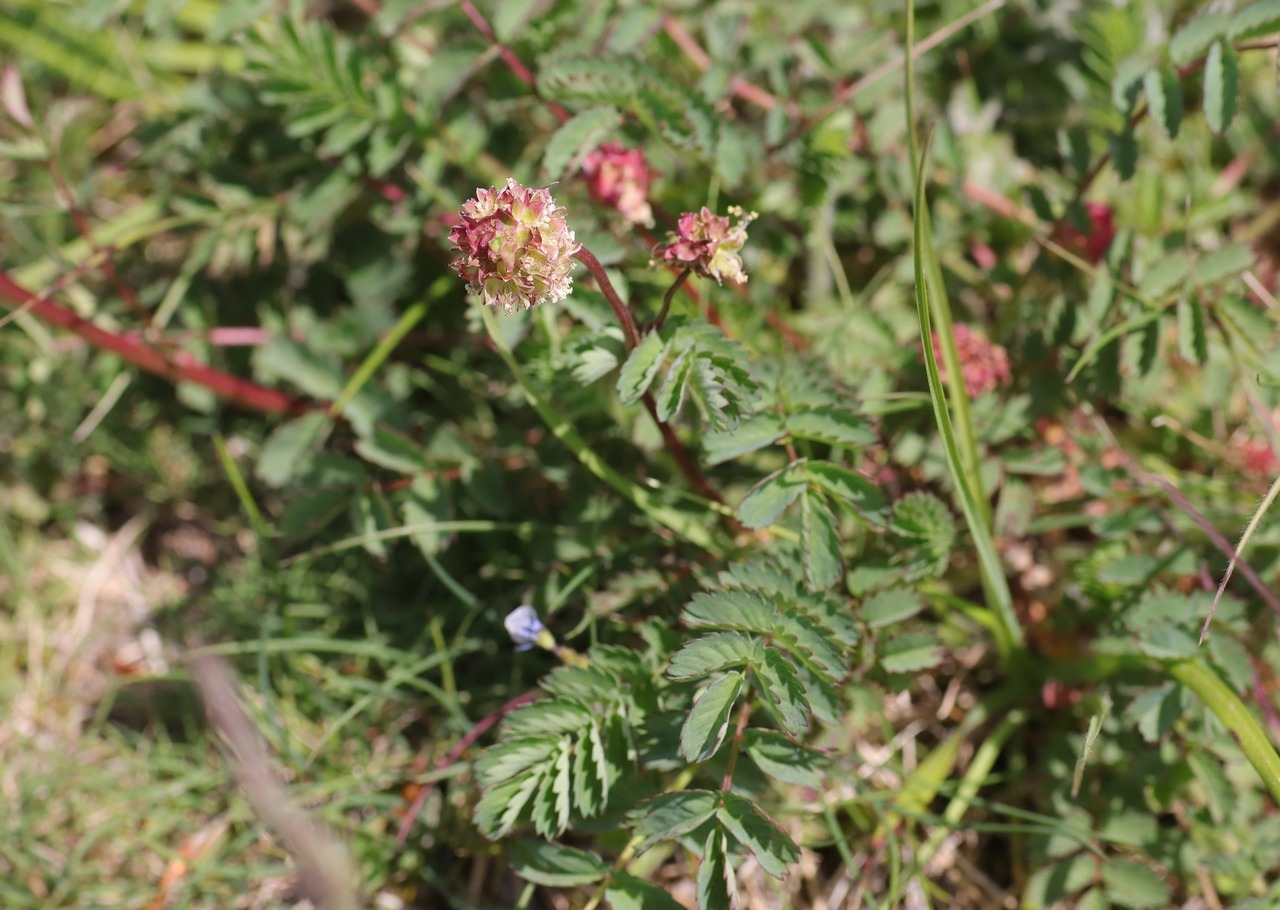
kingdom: Plantae
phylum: Tracheophyta
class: Magnoliopsida
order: Rosales
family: Rosaceae
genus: Poterium
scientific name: Poterium sanguisorba
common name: Salad burnet
